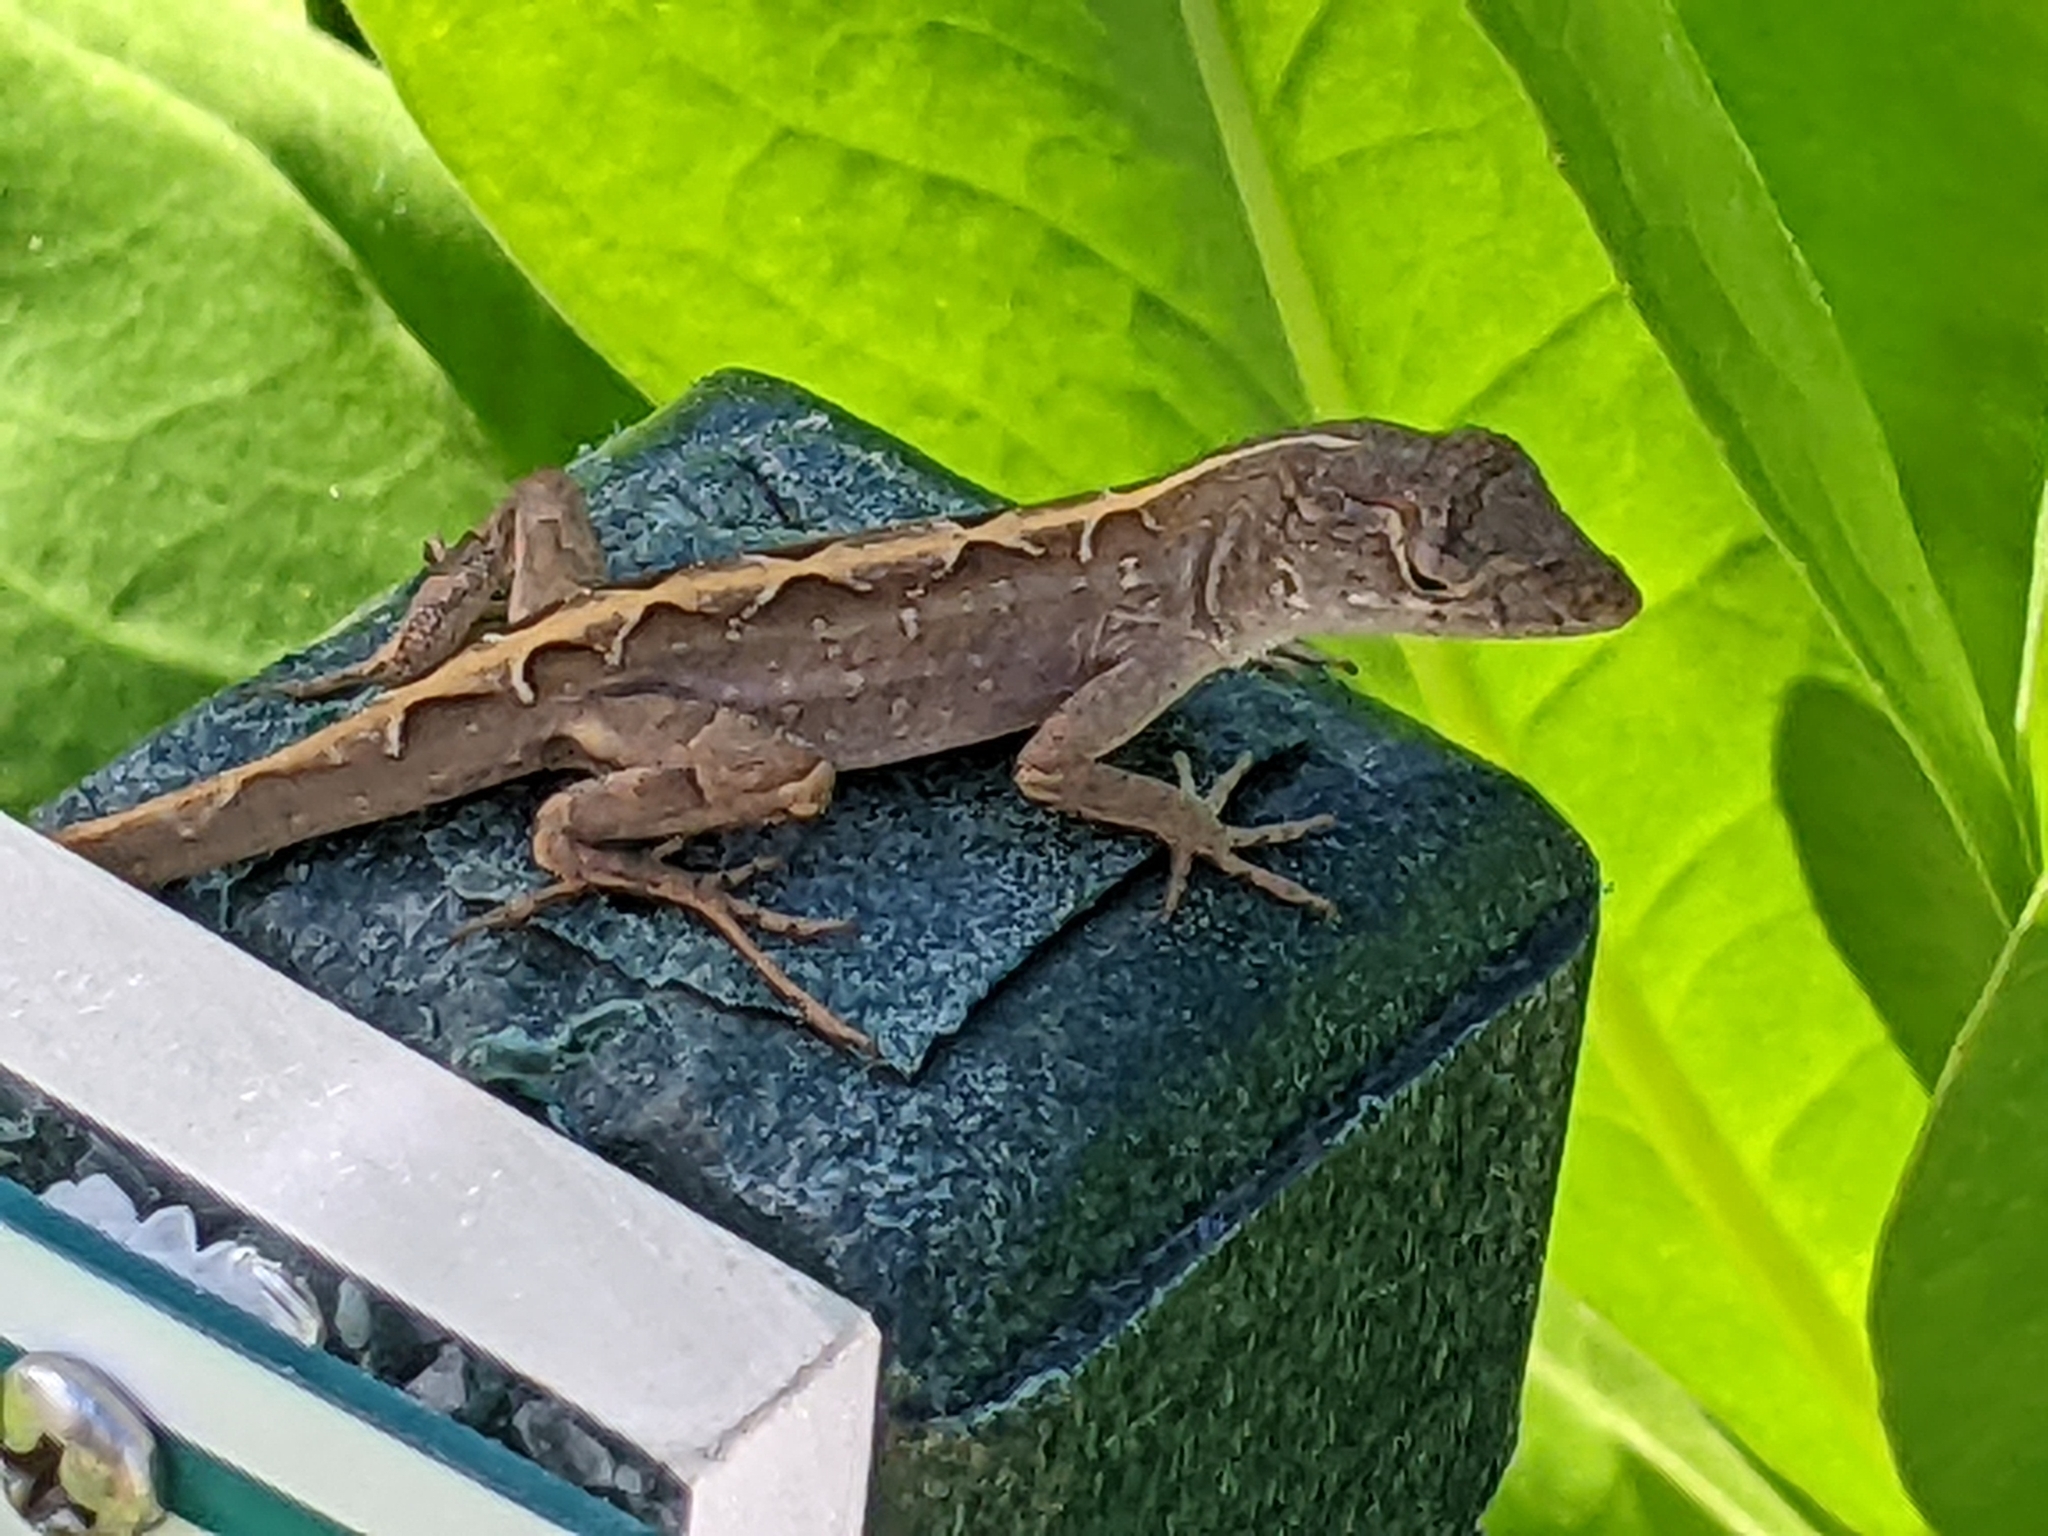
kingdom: Animalia
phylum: Chordata
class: Squamata
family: Dactyloidae
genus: Anolis
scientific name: Anolis sagrei
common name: Brown anole
